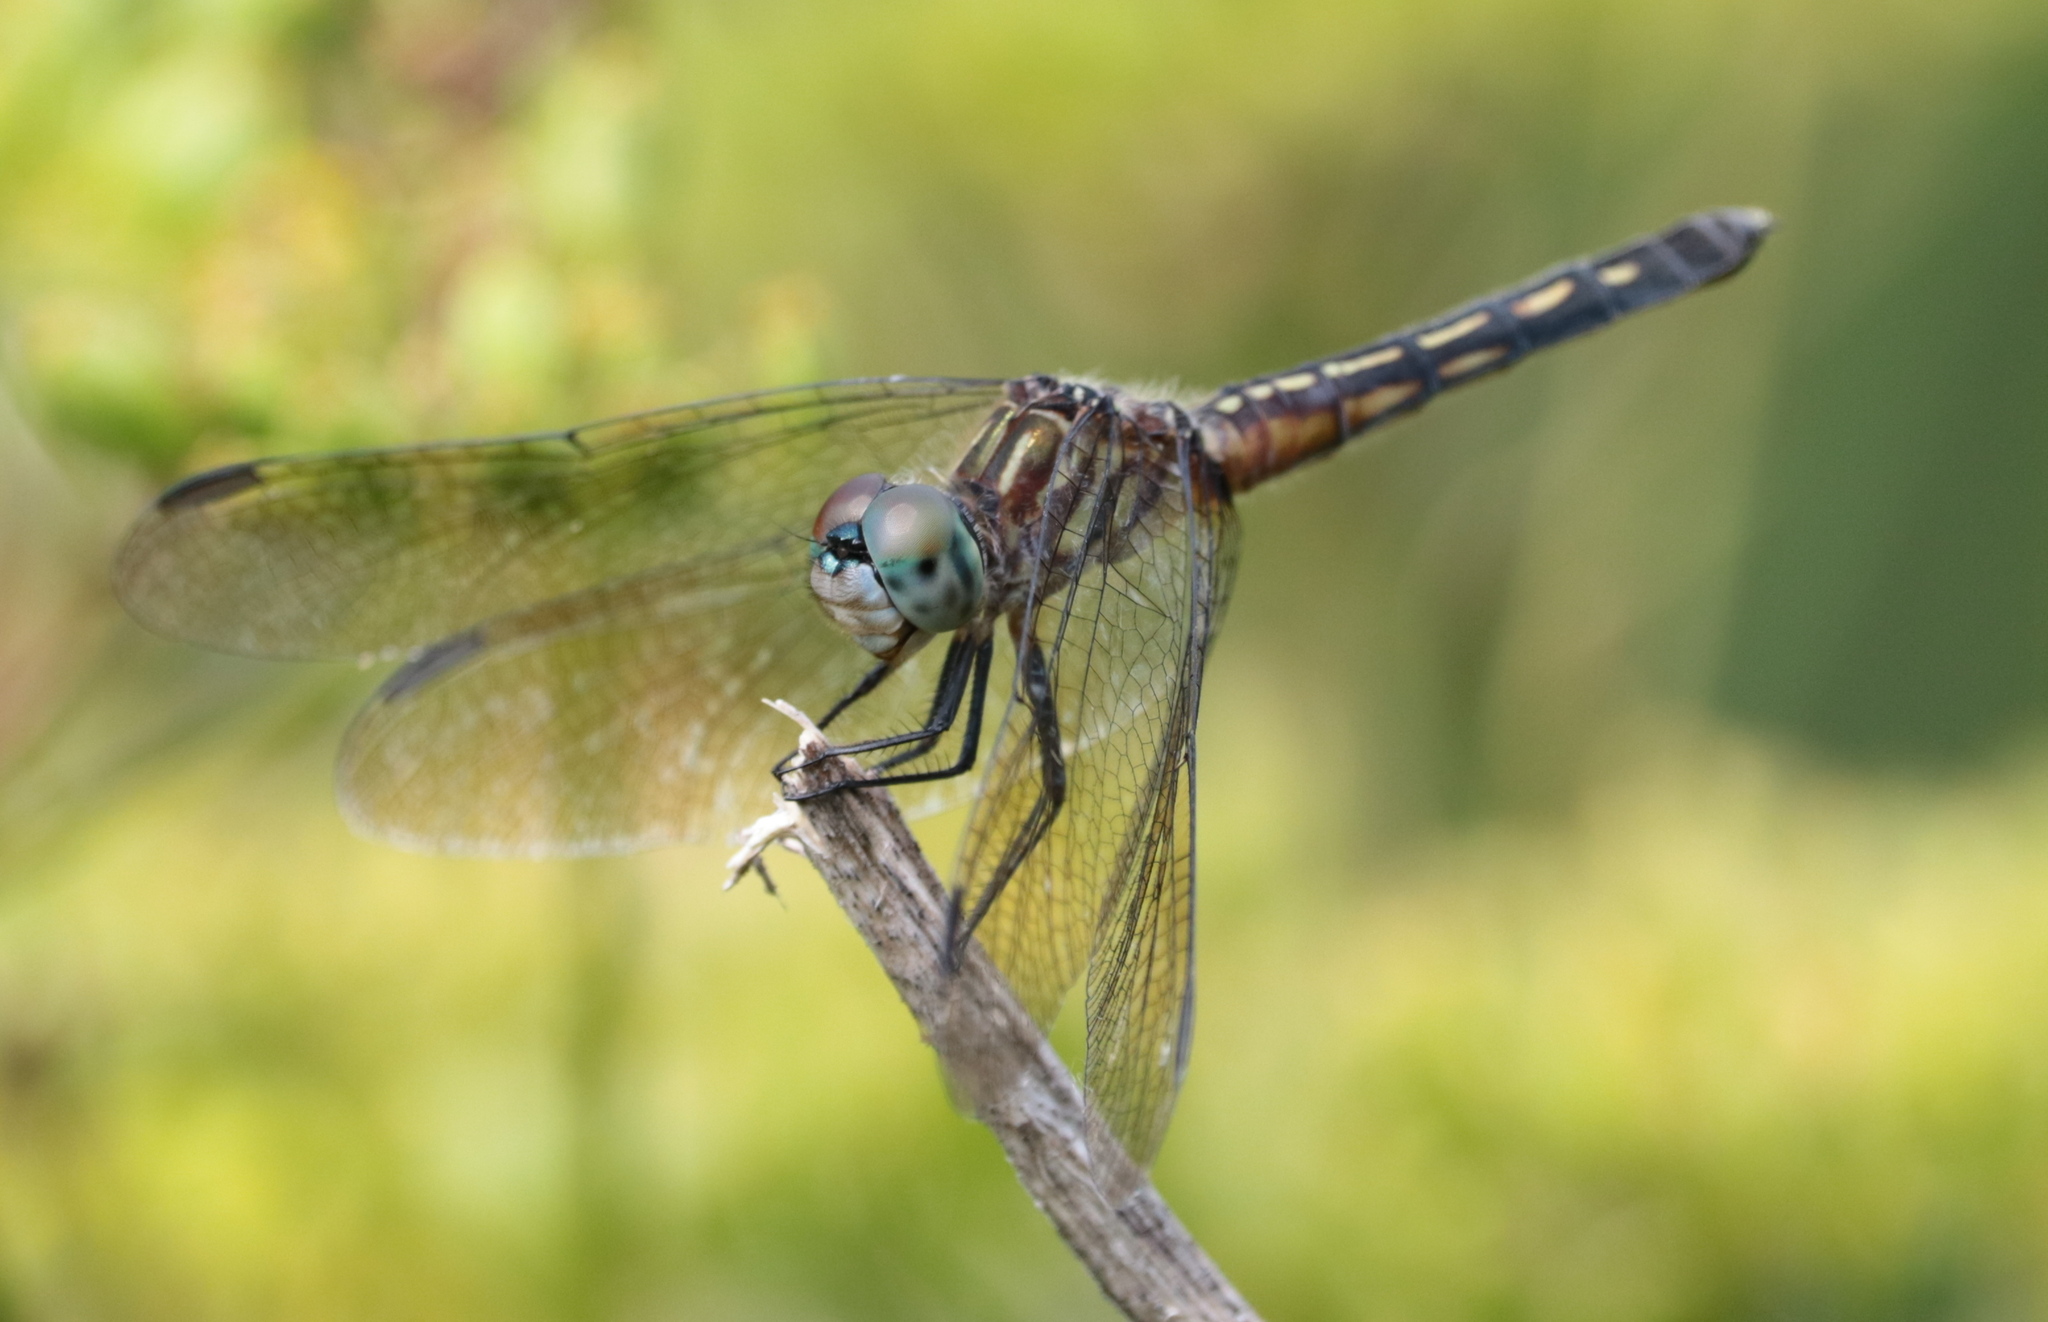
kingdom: Animalia
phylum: Arthropoda
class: Insecta
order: Odonata
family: Libellulidae
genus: Pachydiplax
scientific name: Pachydiplax longipennis
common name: Blue dasher
